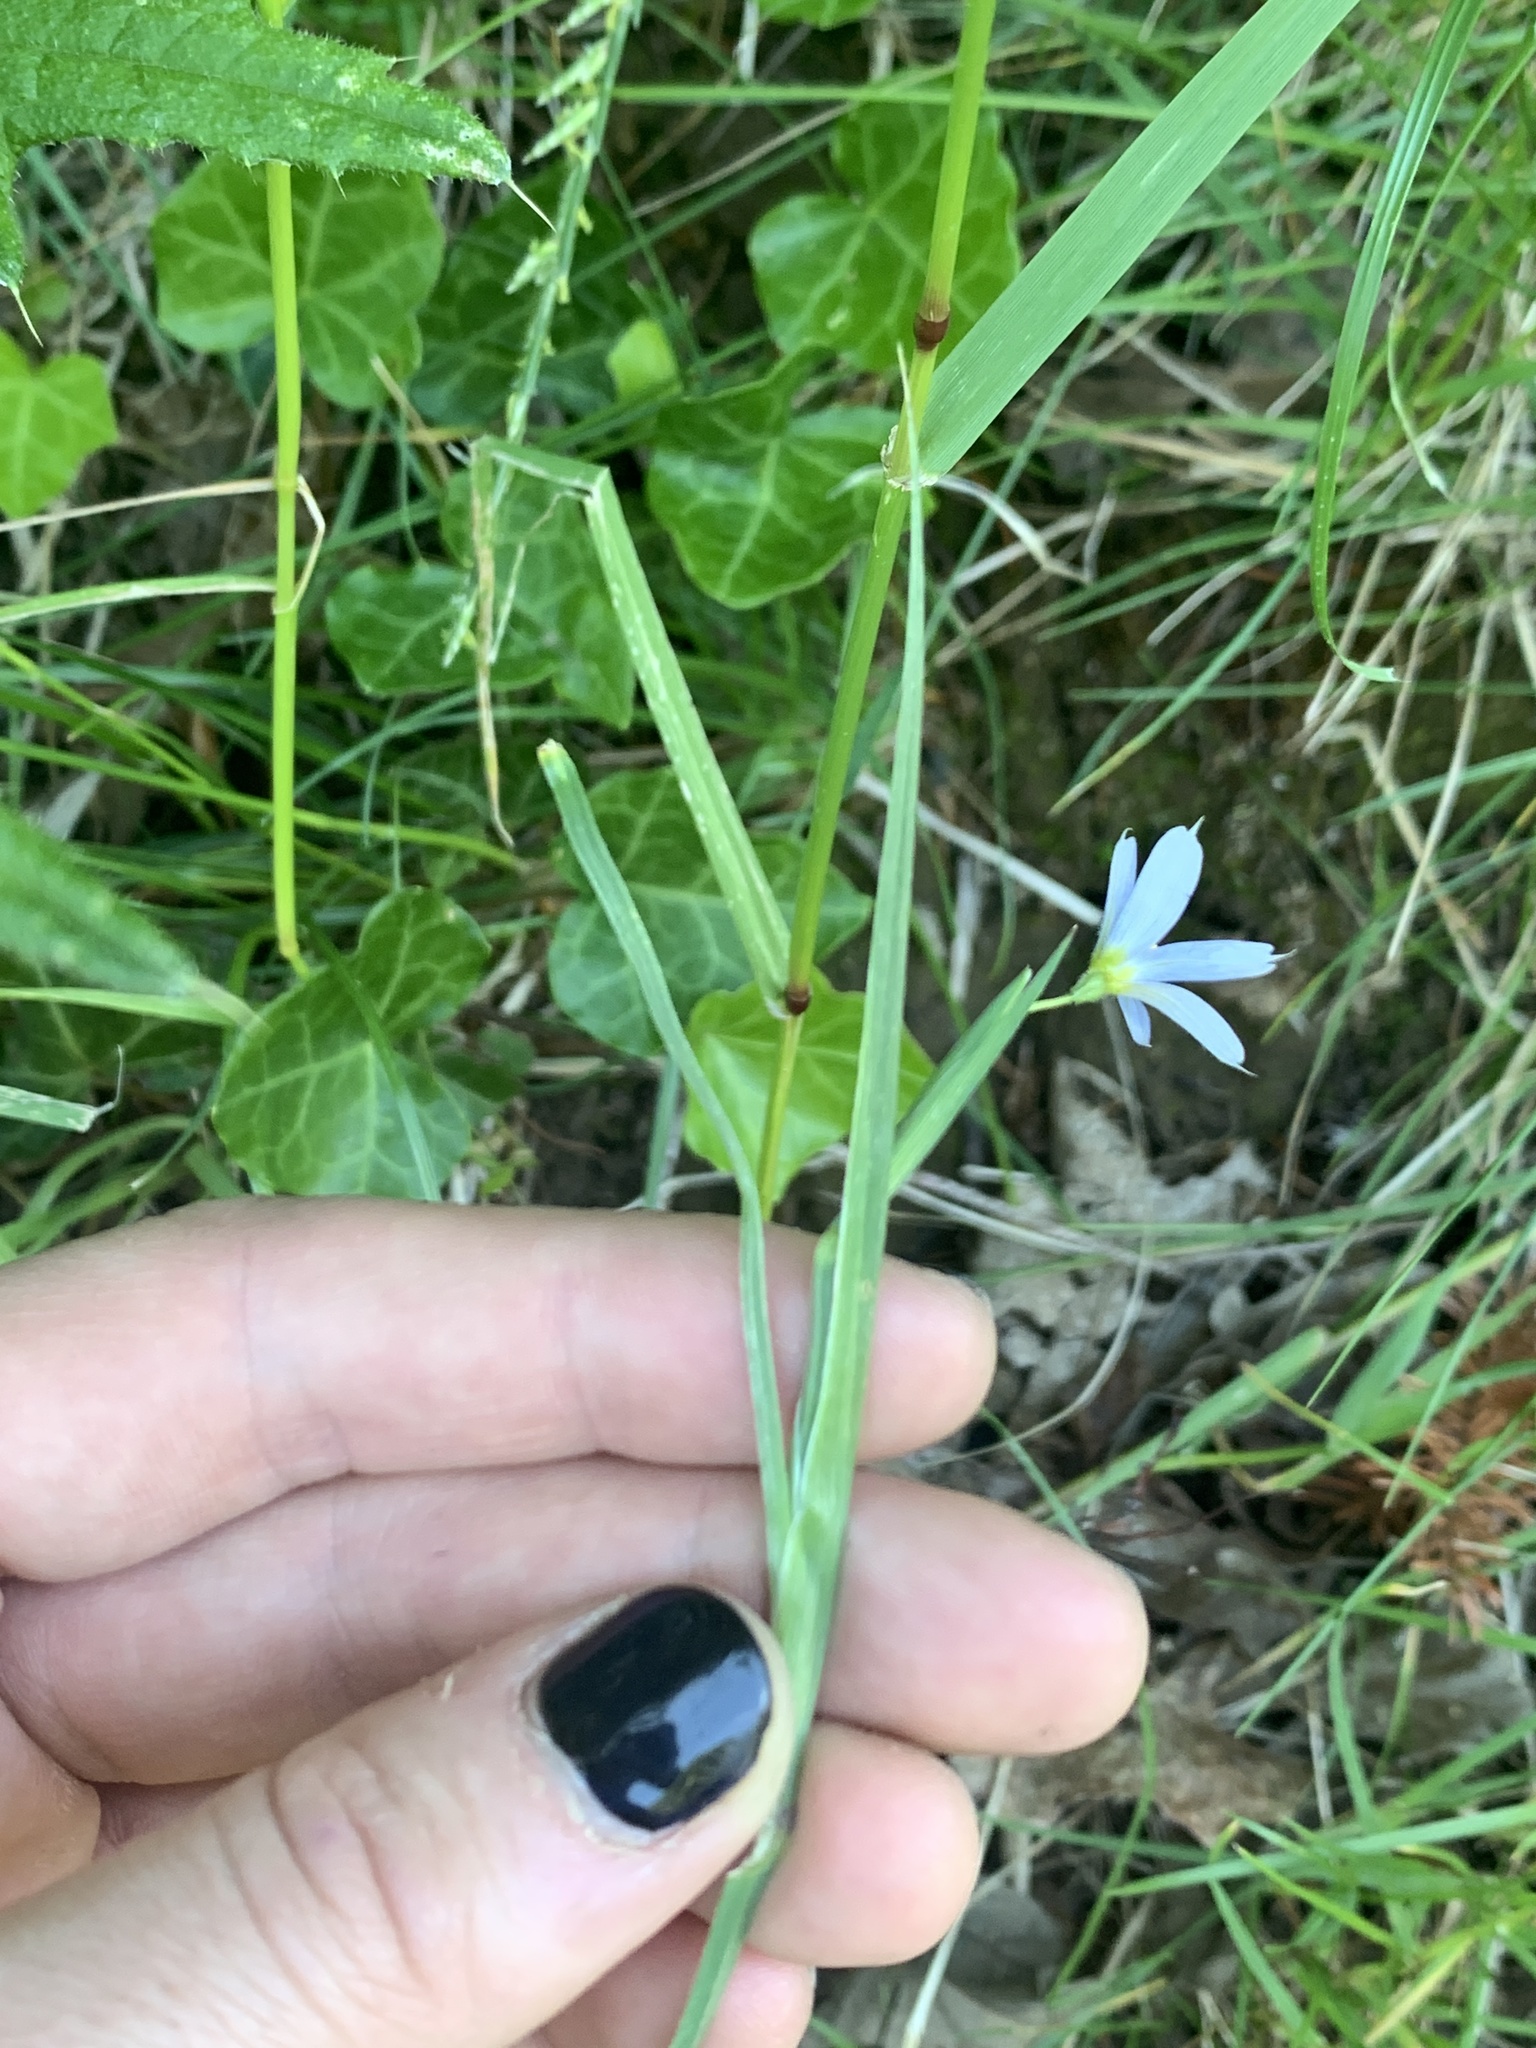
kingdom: Plantae
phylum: Tracheophyta
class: Liliopsida
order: Asparagales
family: Iridaceae
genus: Sisyrinchium
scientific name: Sisyrinchium bellum
